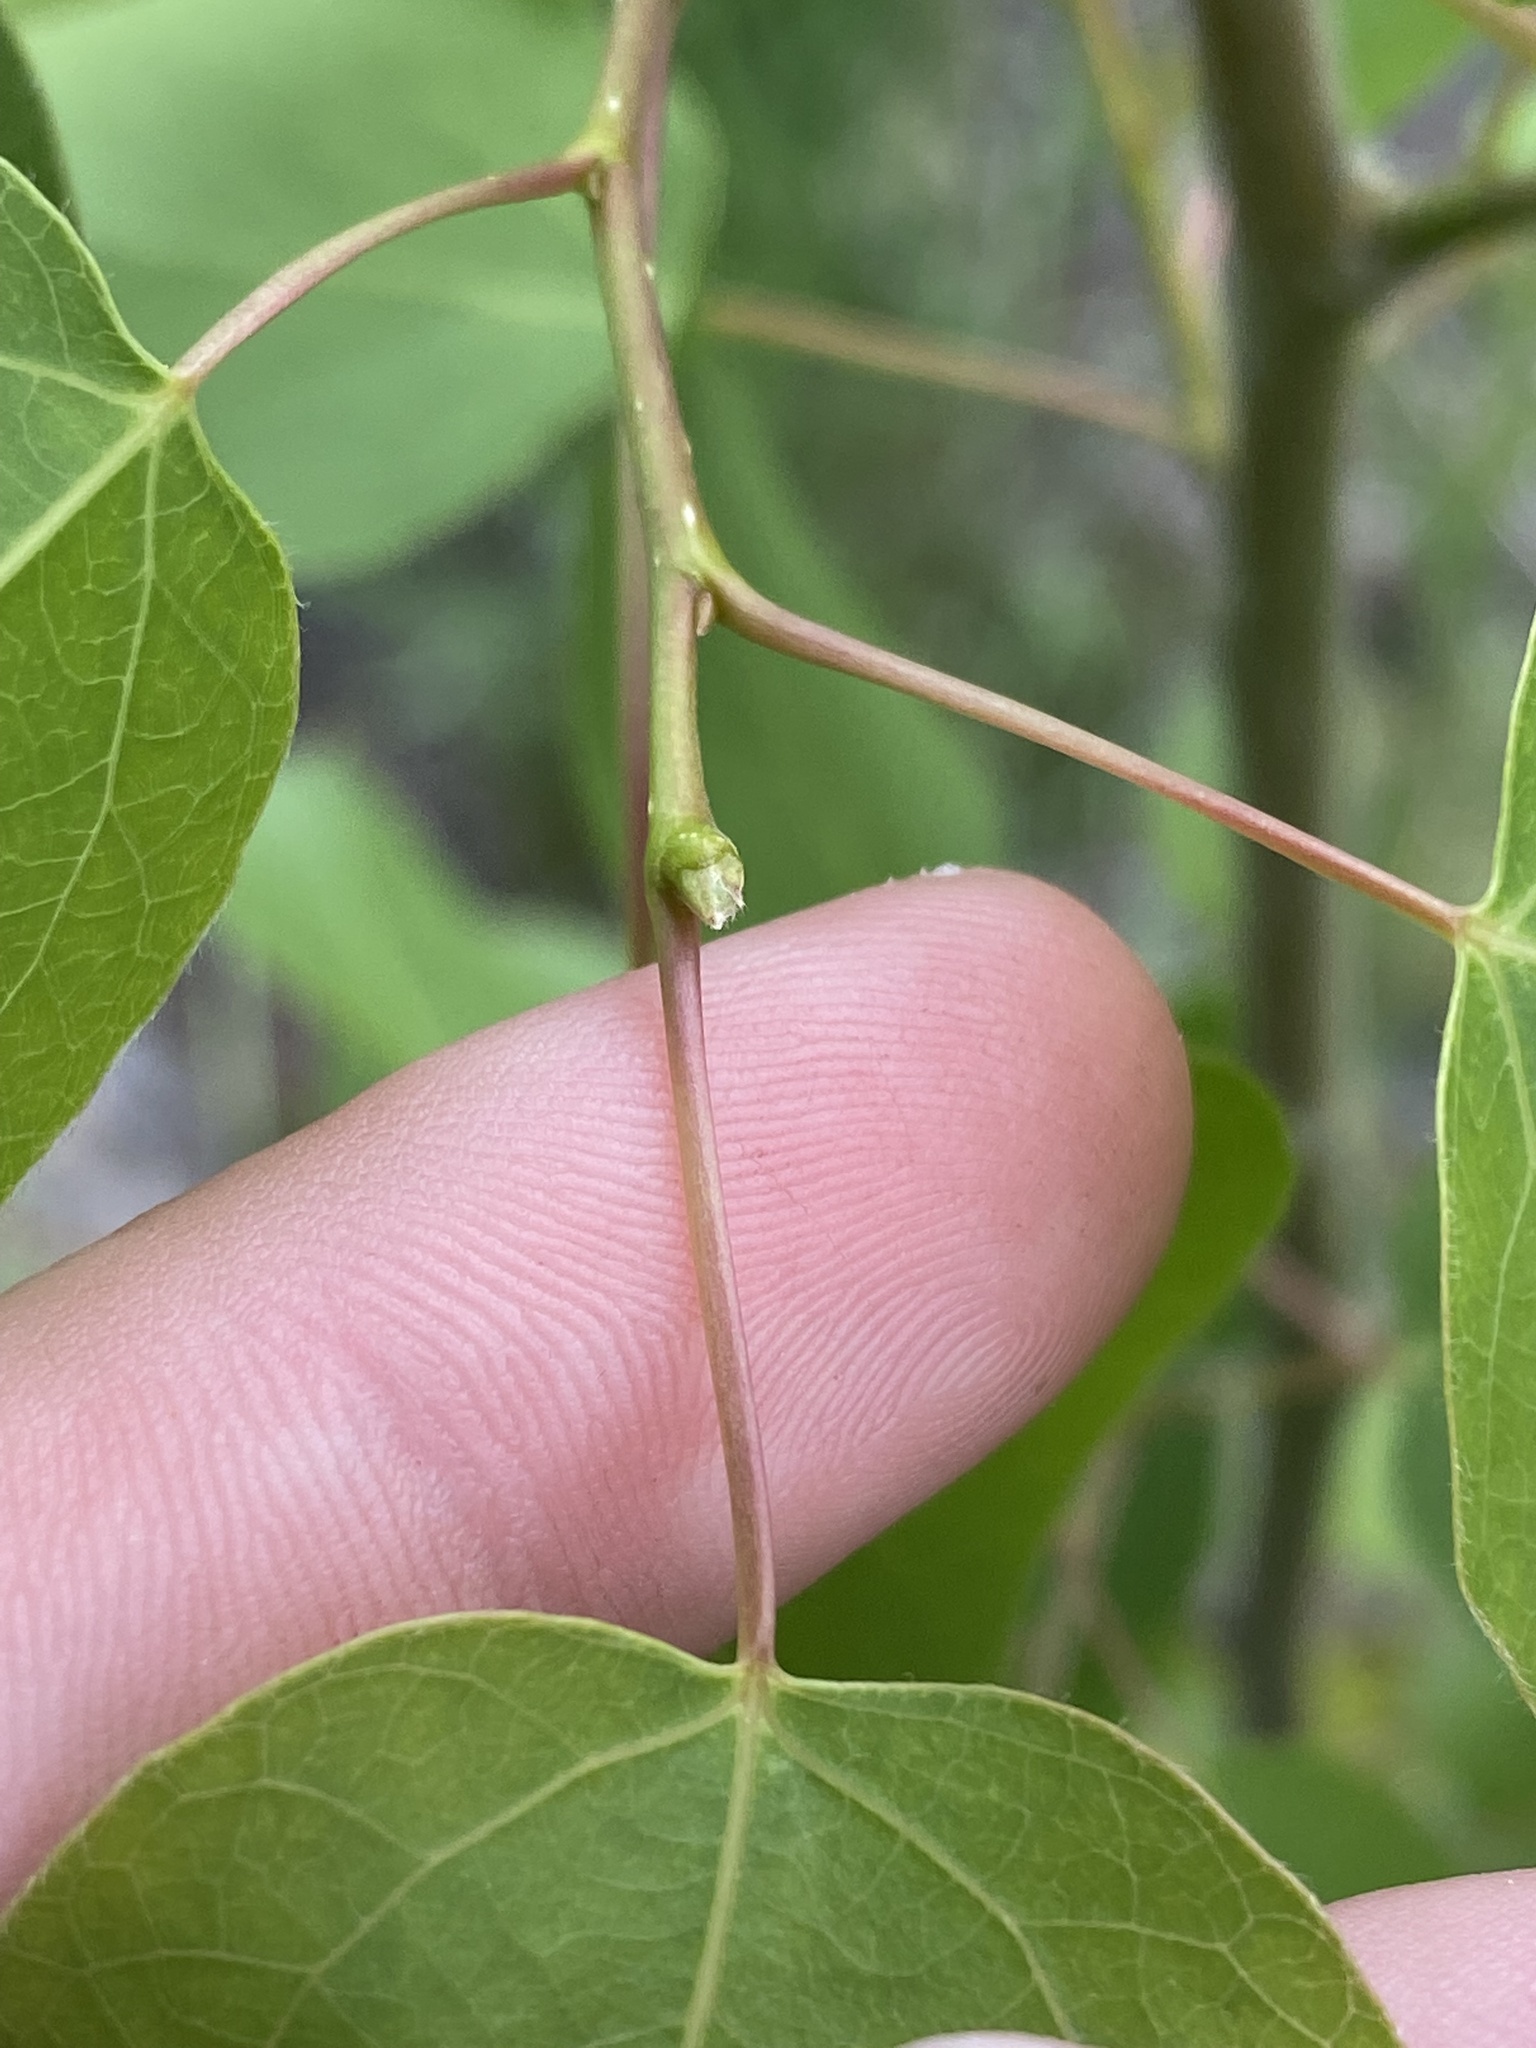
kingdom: Plantae
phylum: Tracheophyta
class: Magnoliopsida
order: Malpighiales
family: Salicaceae
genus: Populus
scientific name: Populus tremuloides
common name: Quaking aspen
